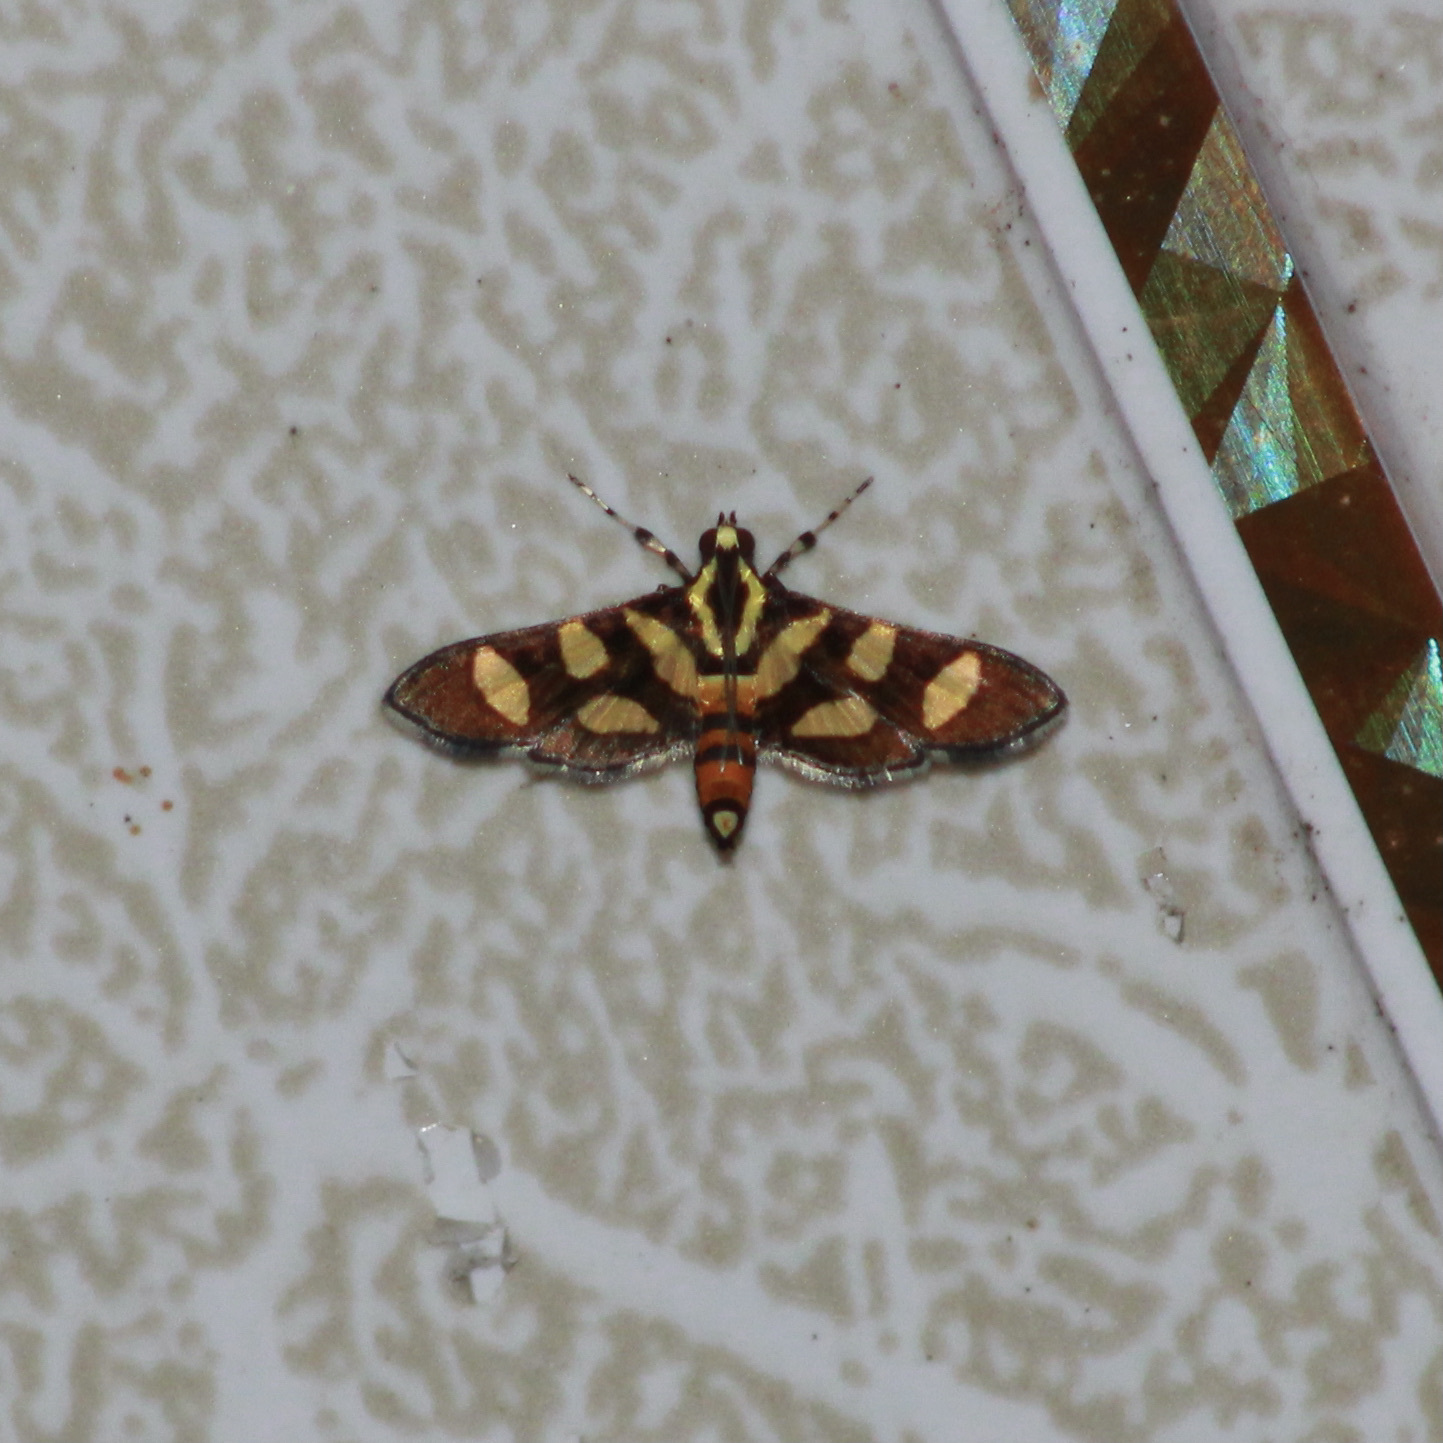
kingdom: Animalia
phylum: Arthropoda
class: Insecta
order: Lepidoptera
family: Crambidae
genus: Syngamia
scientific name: Syngamia florella
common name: Orange-spotted flower moth
